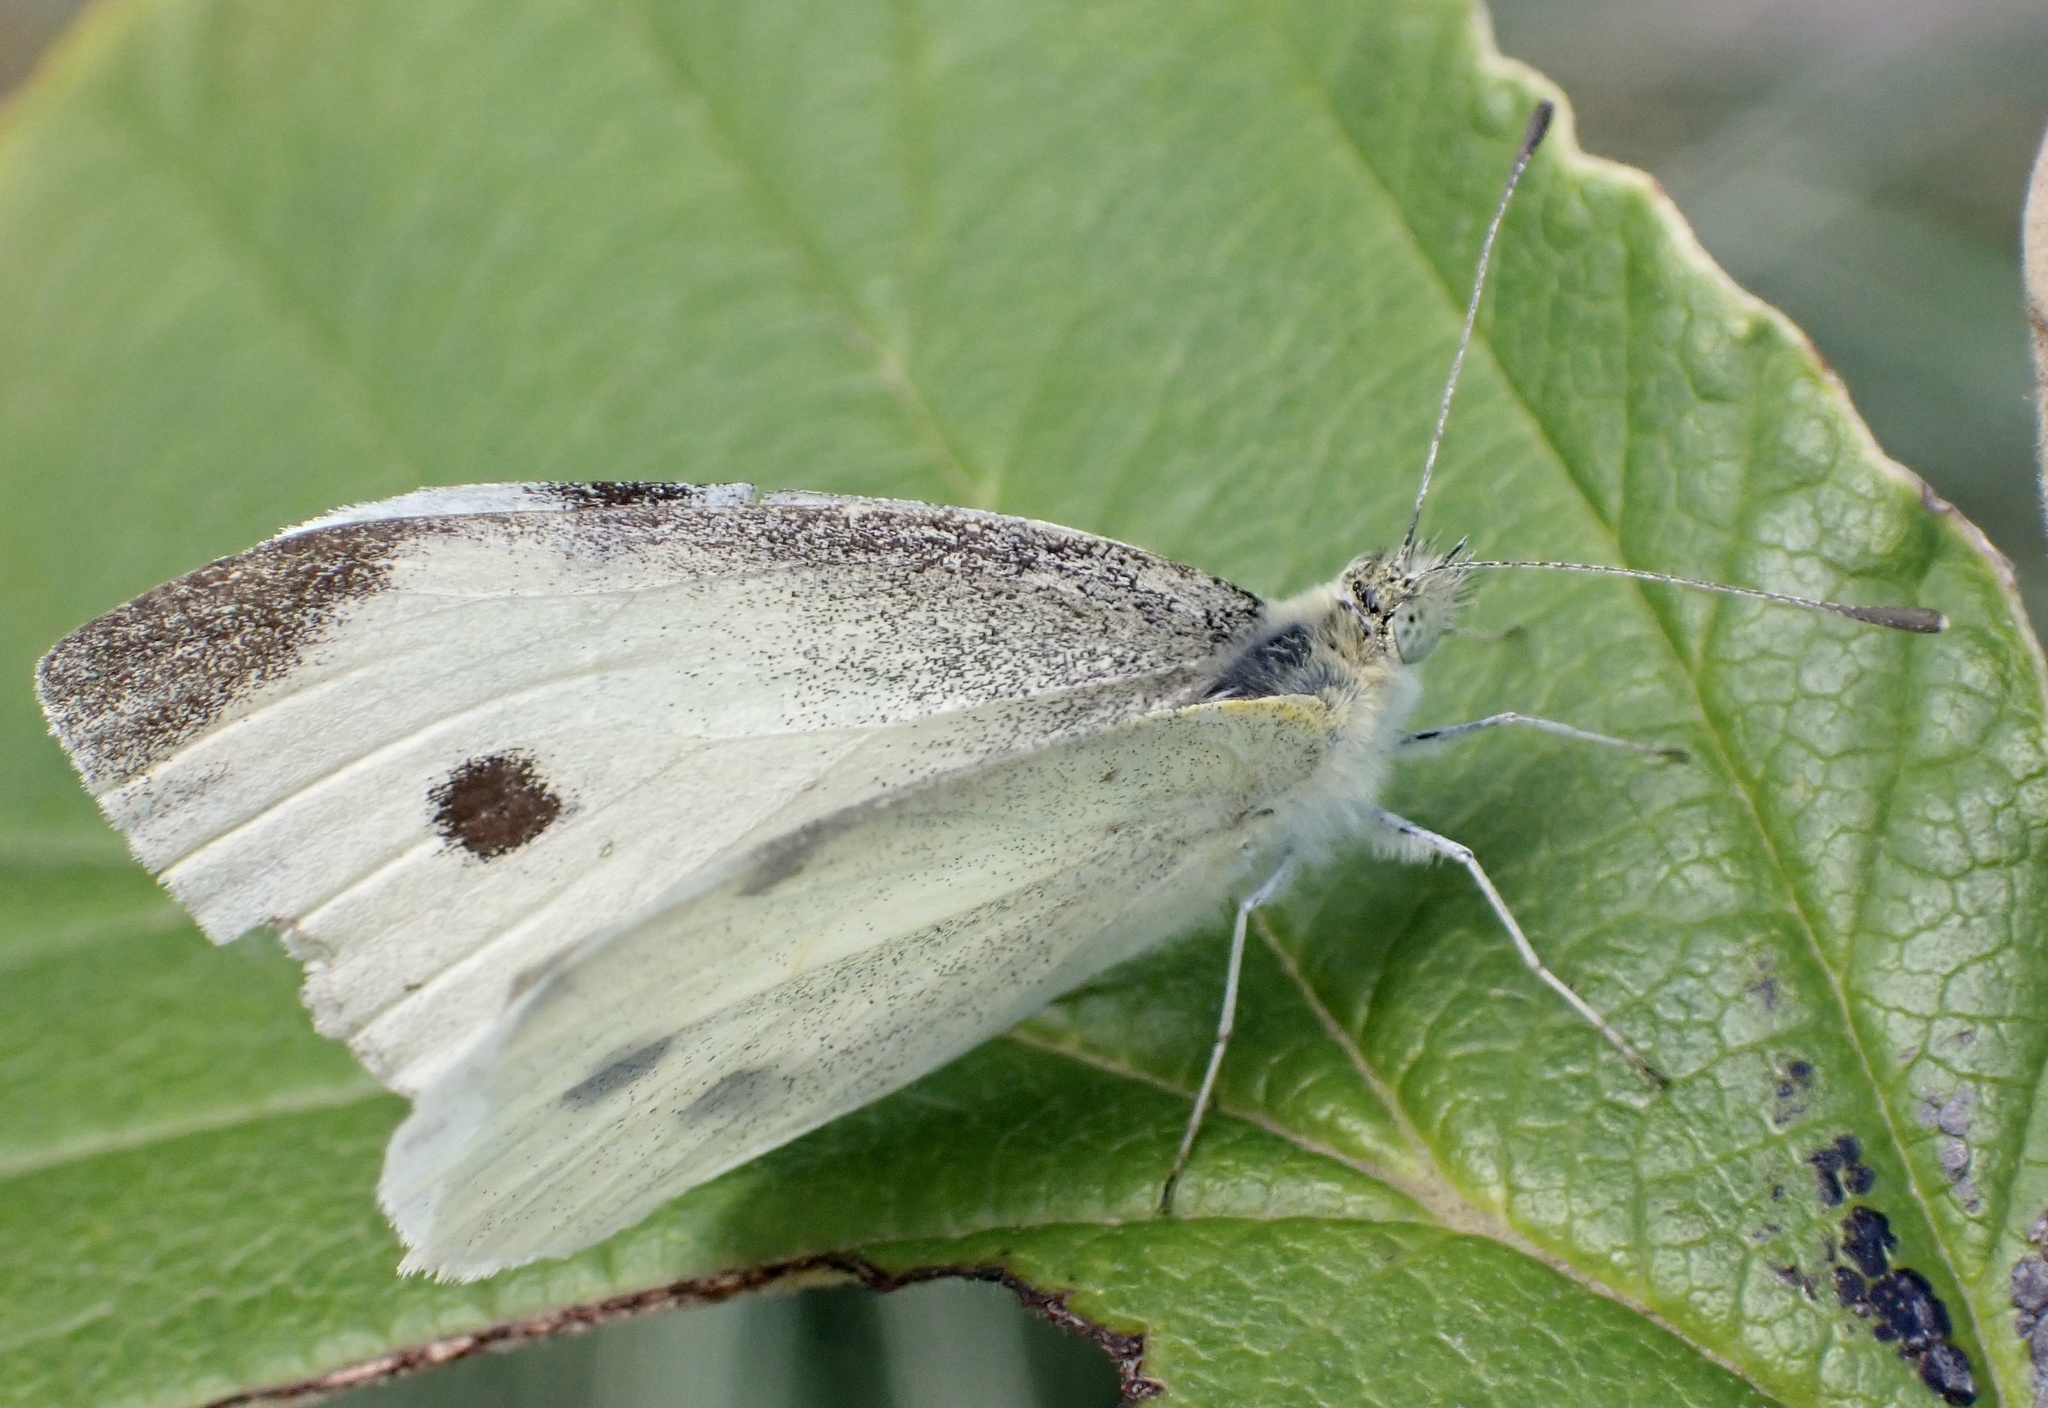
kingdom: Animalia
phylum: Arthropoda
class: Insecta
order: Lepidoptera
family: Pieridae
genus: Pieris
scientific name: Pieris rapae
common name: Small white
